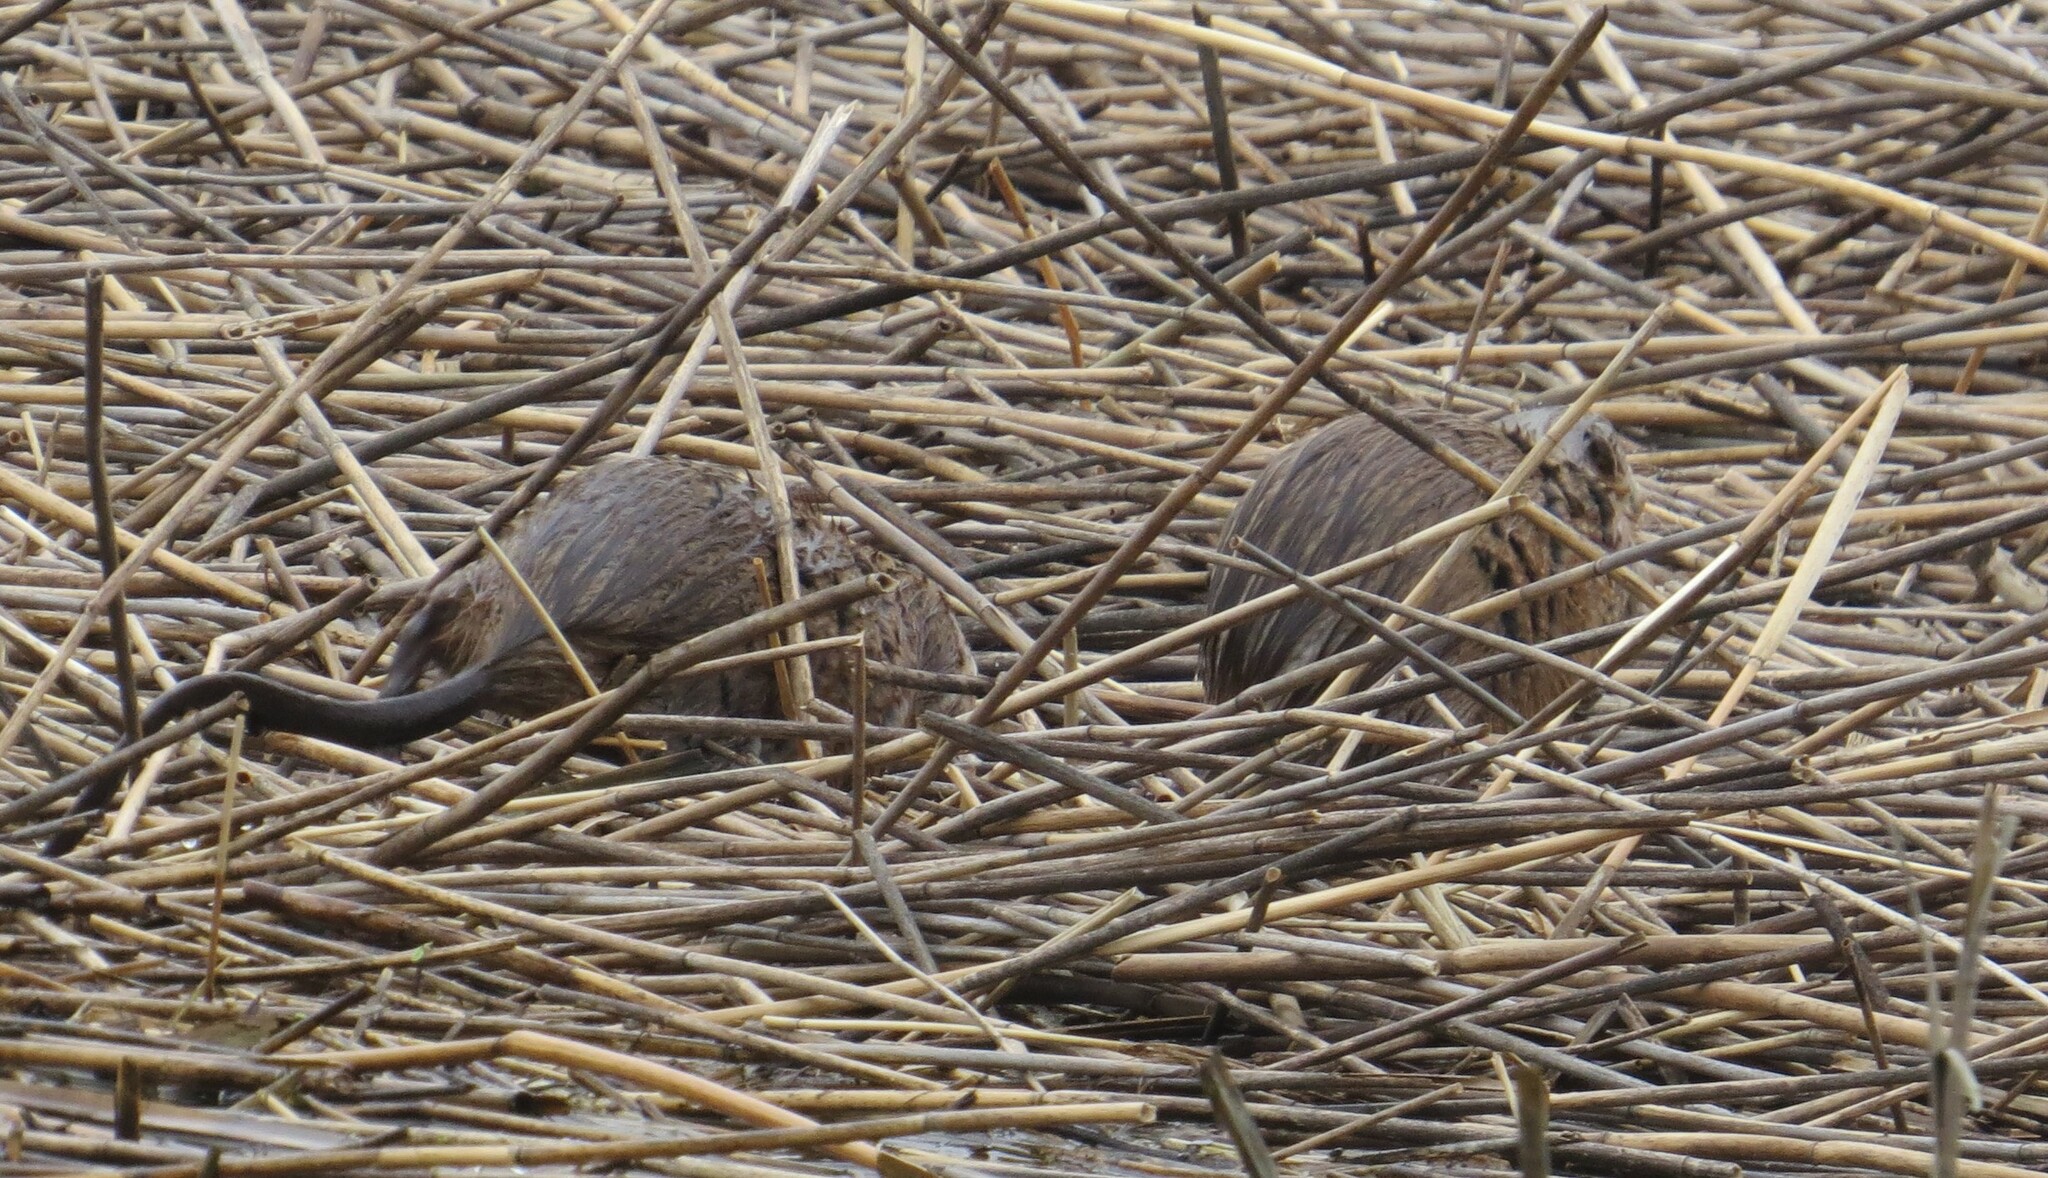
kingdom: Animalia
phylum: Chordata
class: Mammalia
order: Rodentia
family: Cricetidae
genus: Ondatra
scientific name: Ondatra zibethicus
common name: Muskrat
